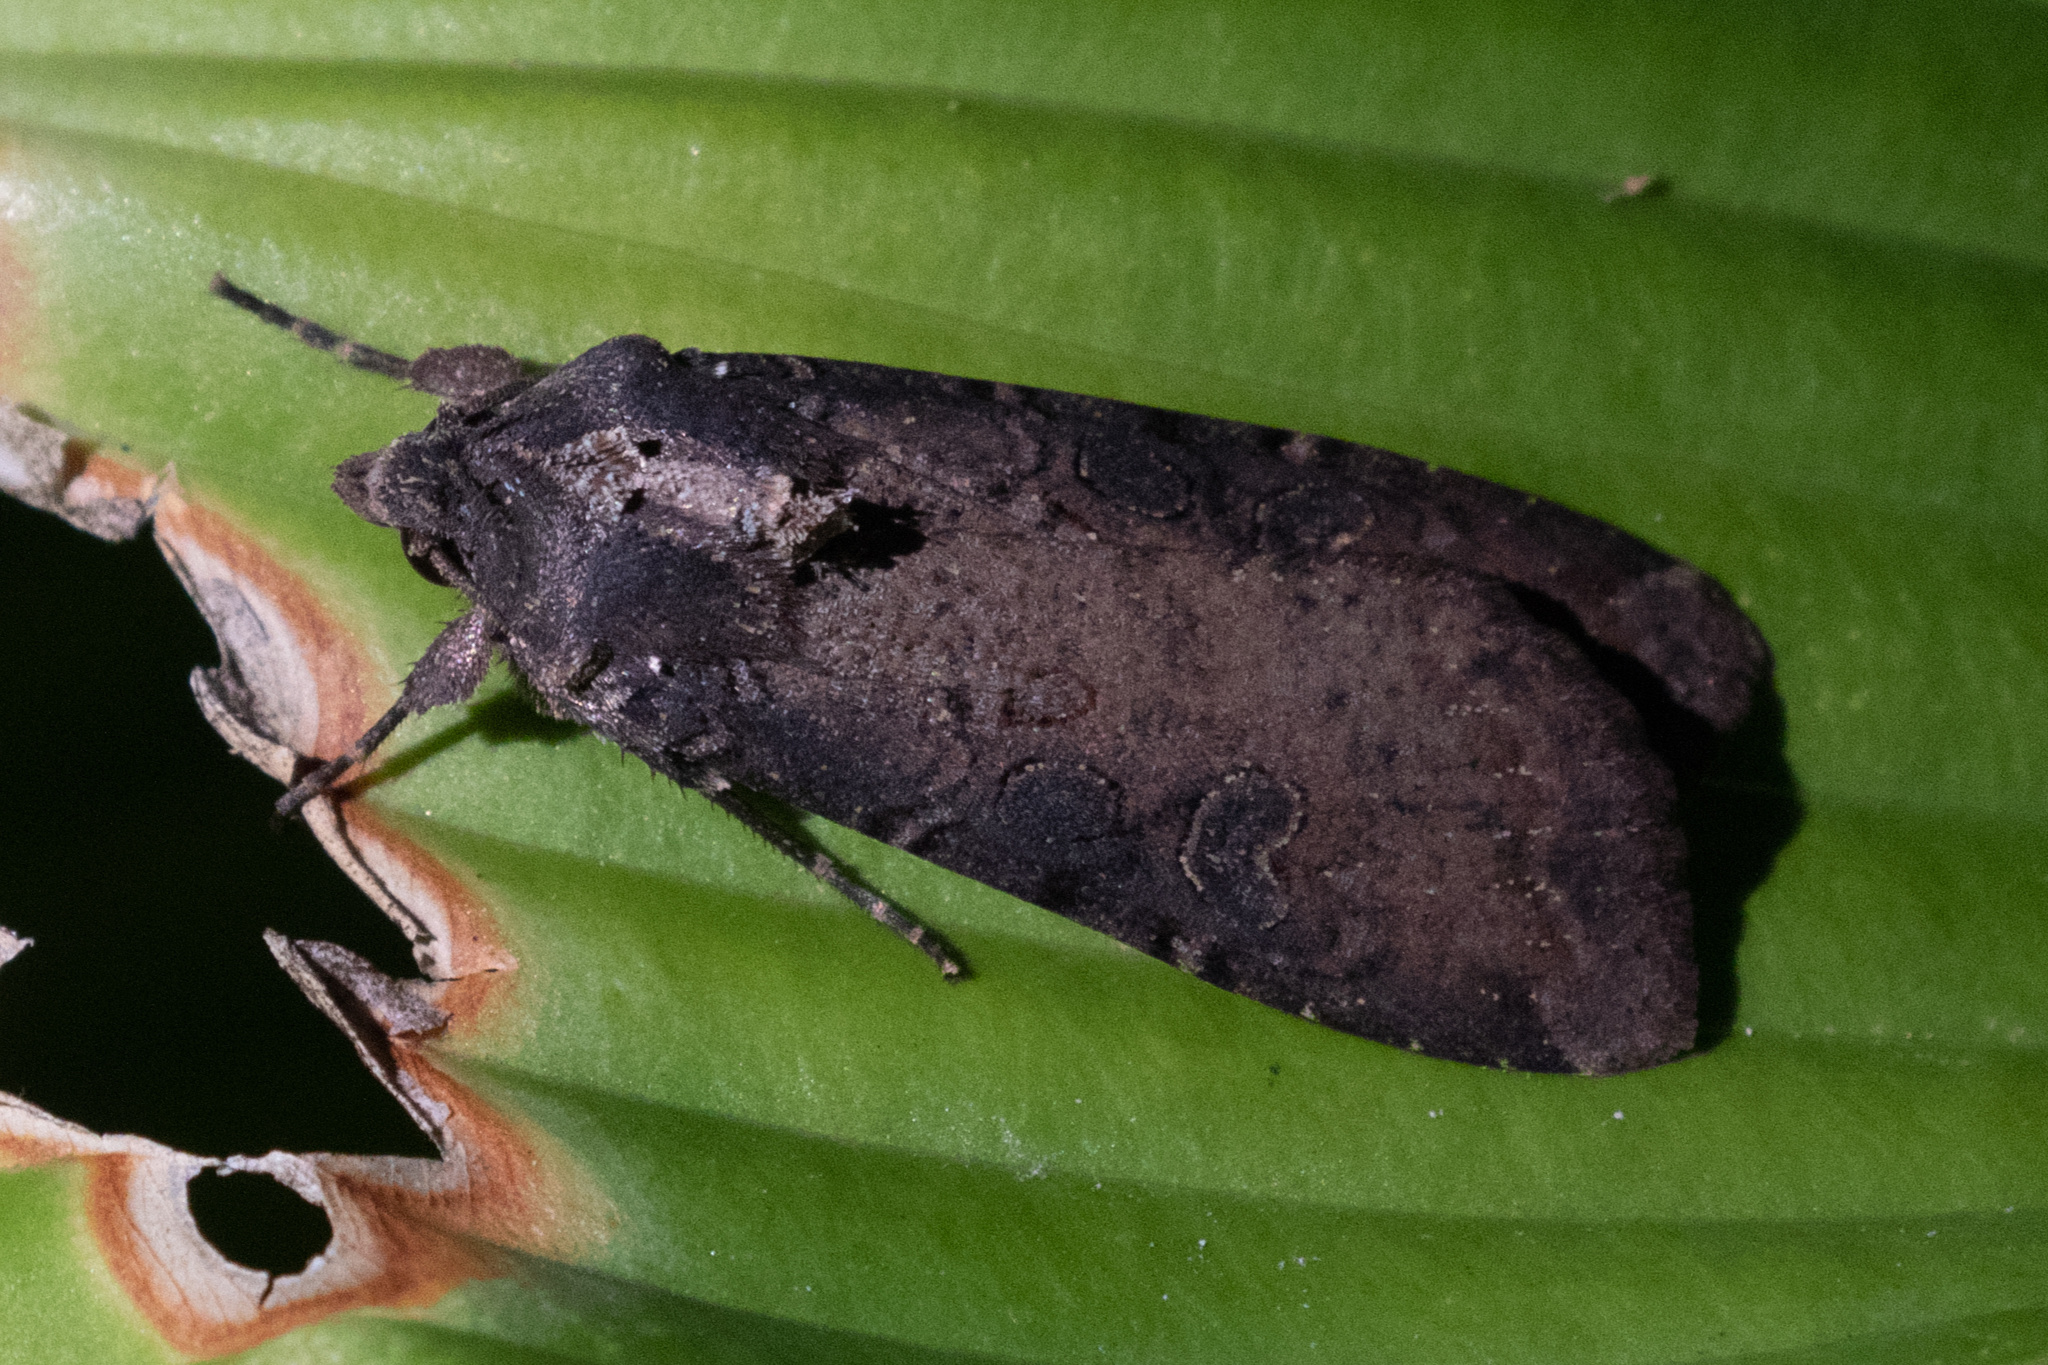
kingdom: Animalia
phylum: Arthropoda
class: Insecta
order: Lepidoptera
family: Noctuidae
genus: Peridroma
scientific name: Peridroma saucia
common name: Pearly underwing
